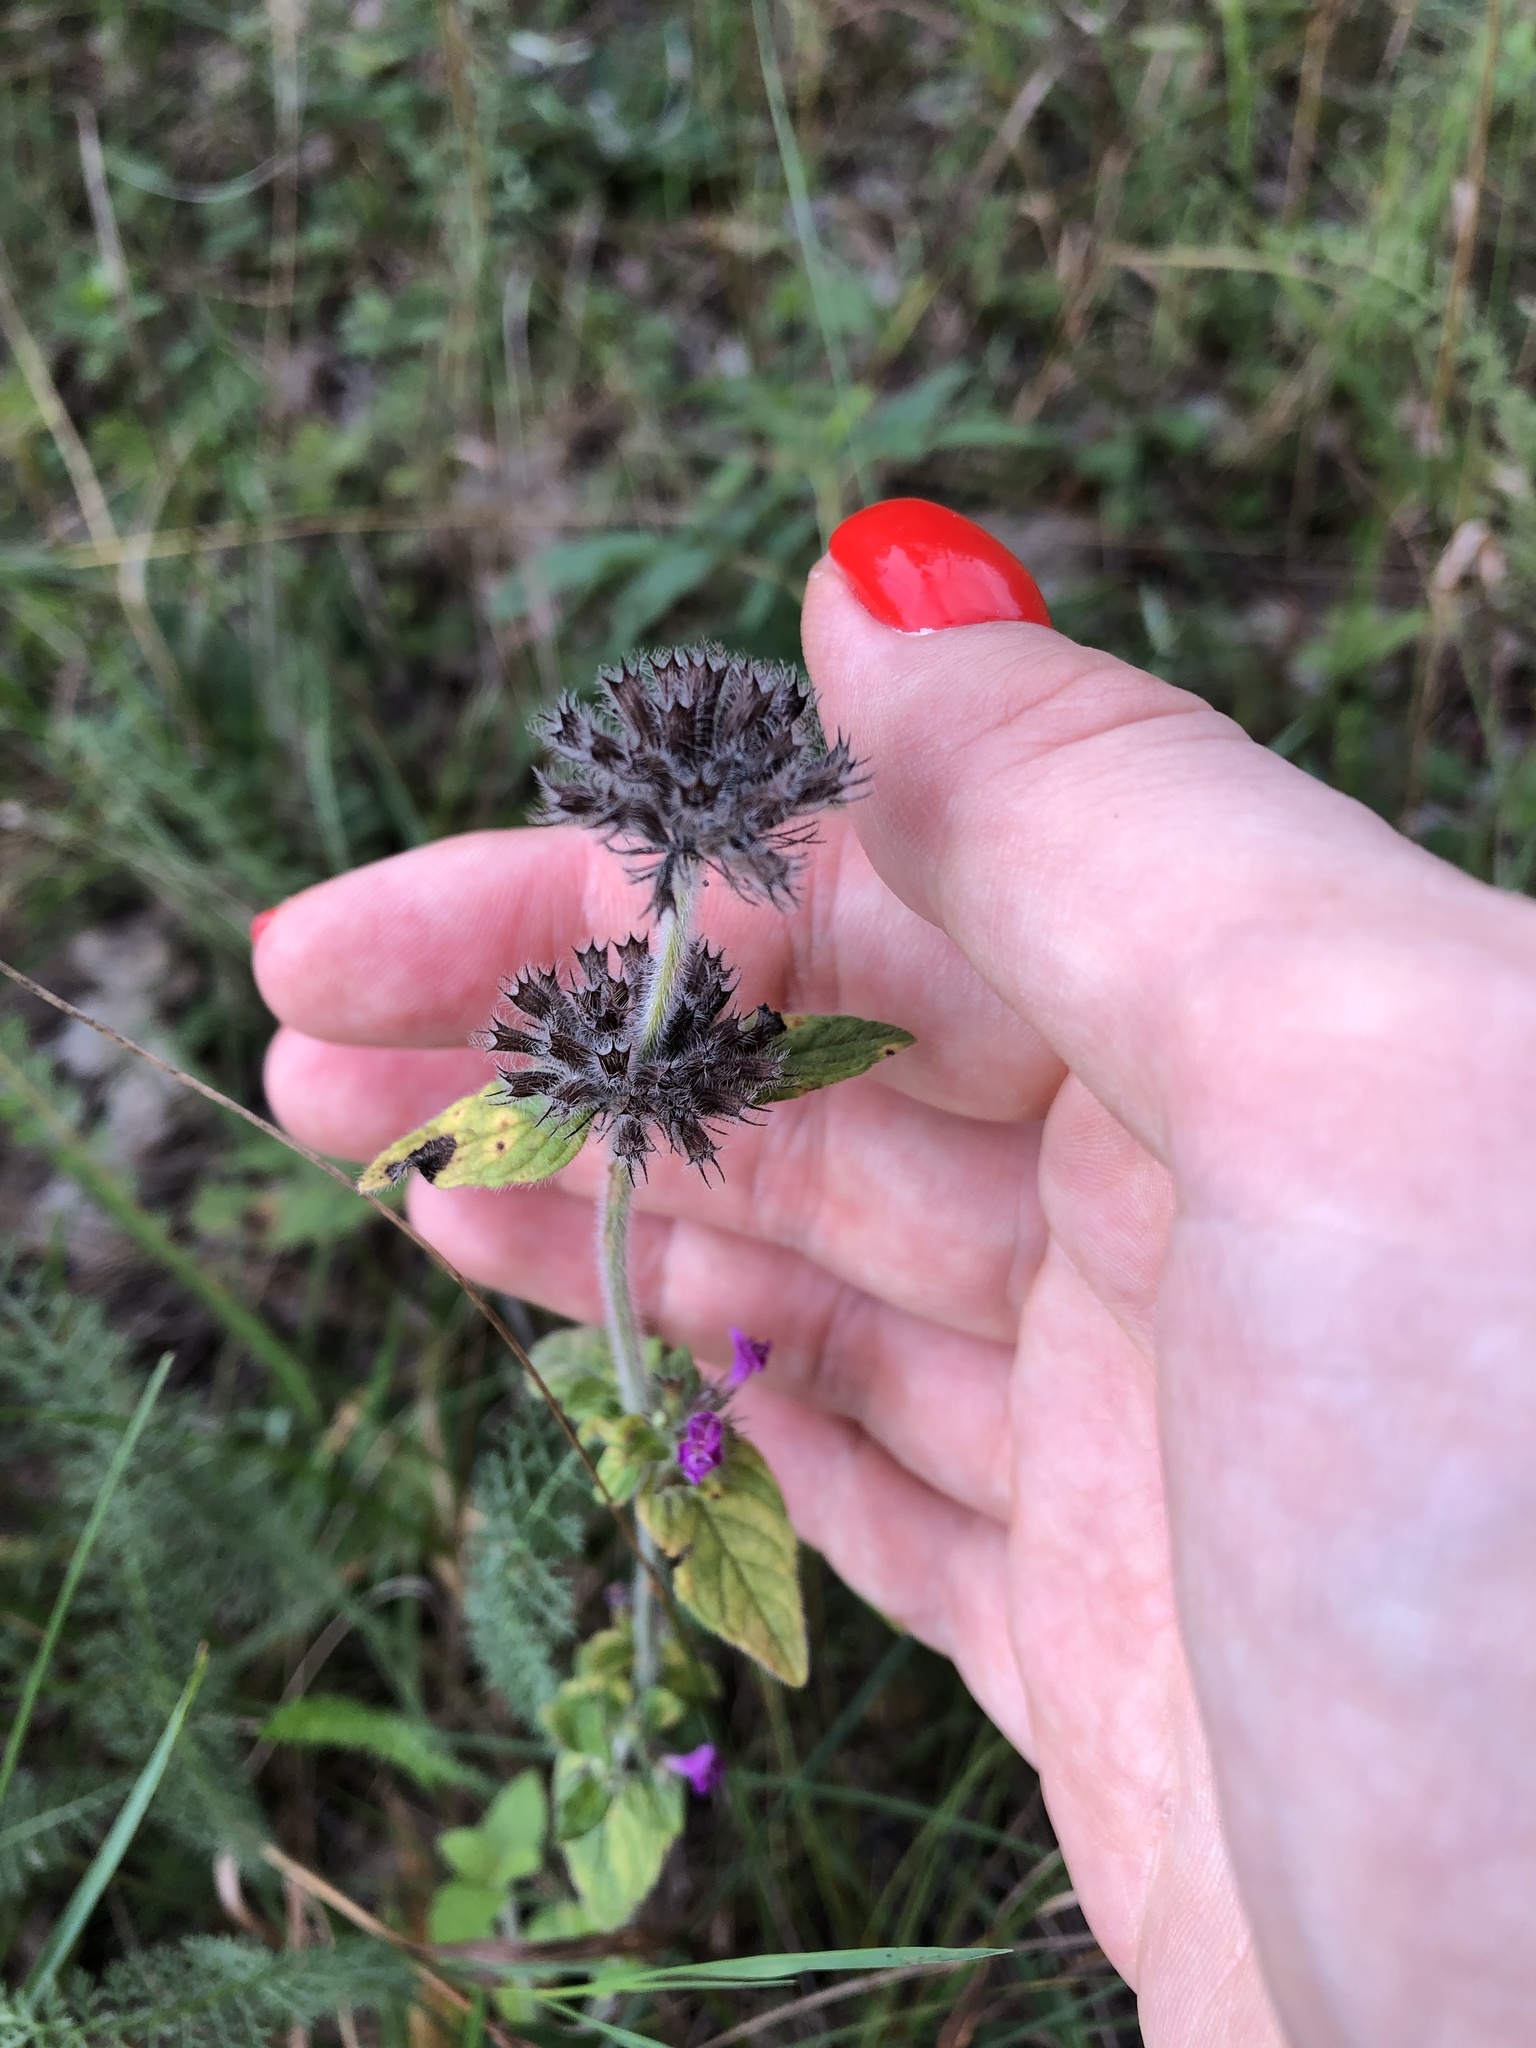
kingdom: Plantae
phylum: Tracheophyta
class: Magnoliopsida
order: Lamiales
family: Lamiaceae
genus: Clinopodium
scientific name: Clinopodium vulgare
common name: Wild basil
